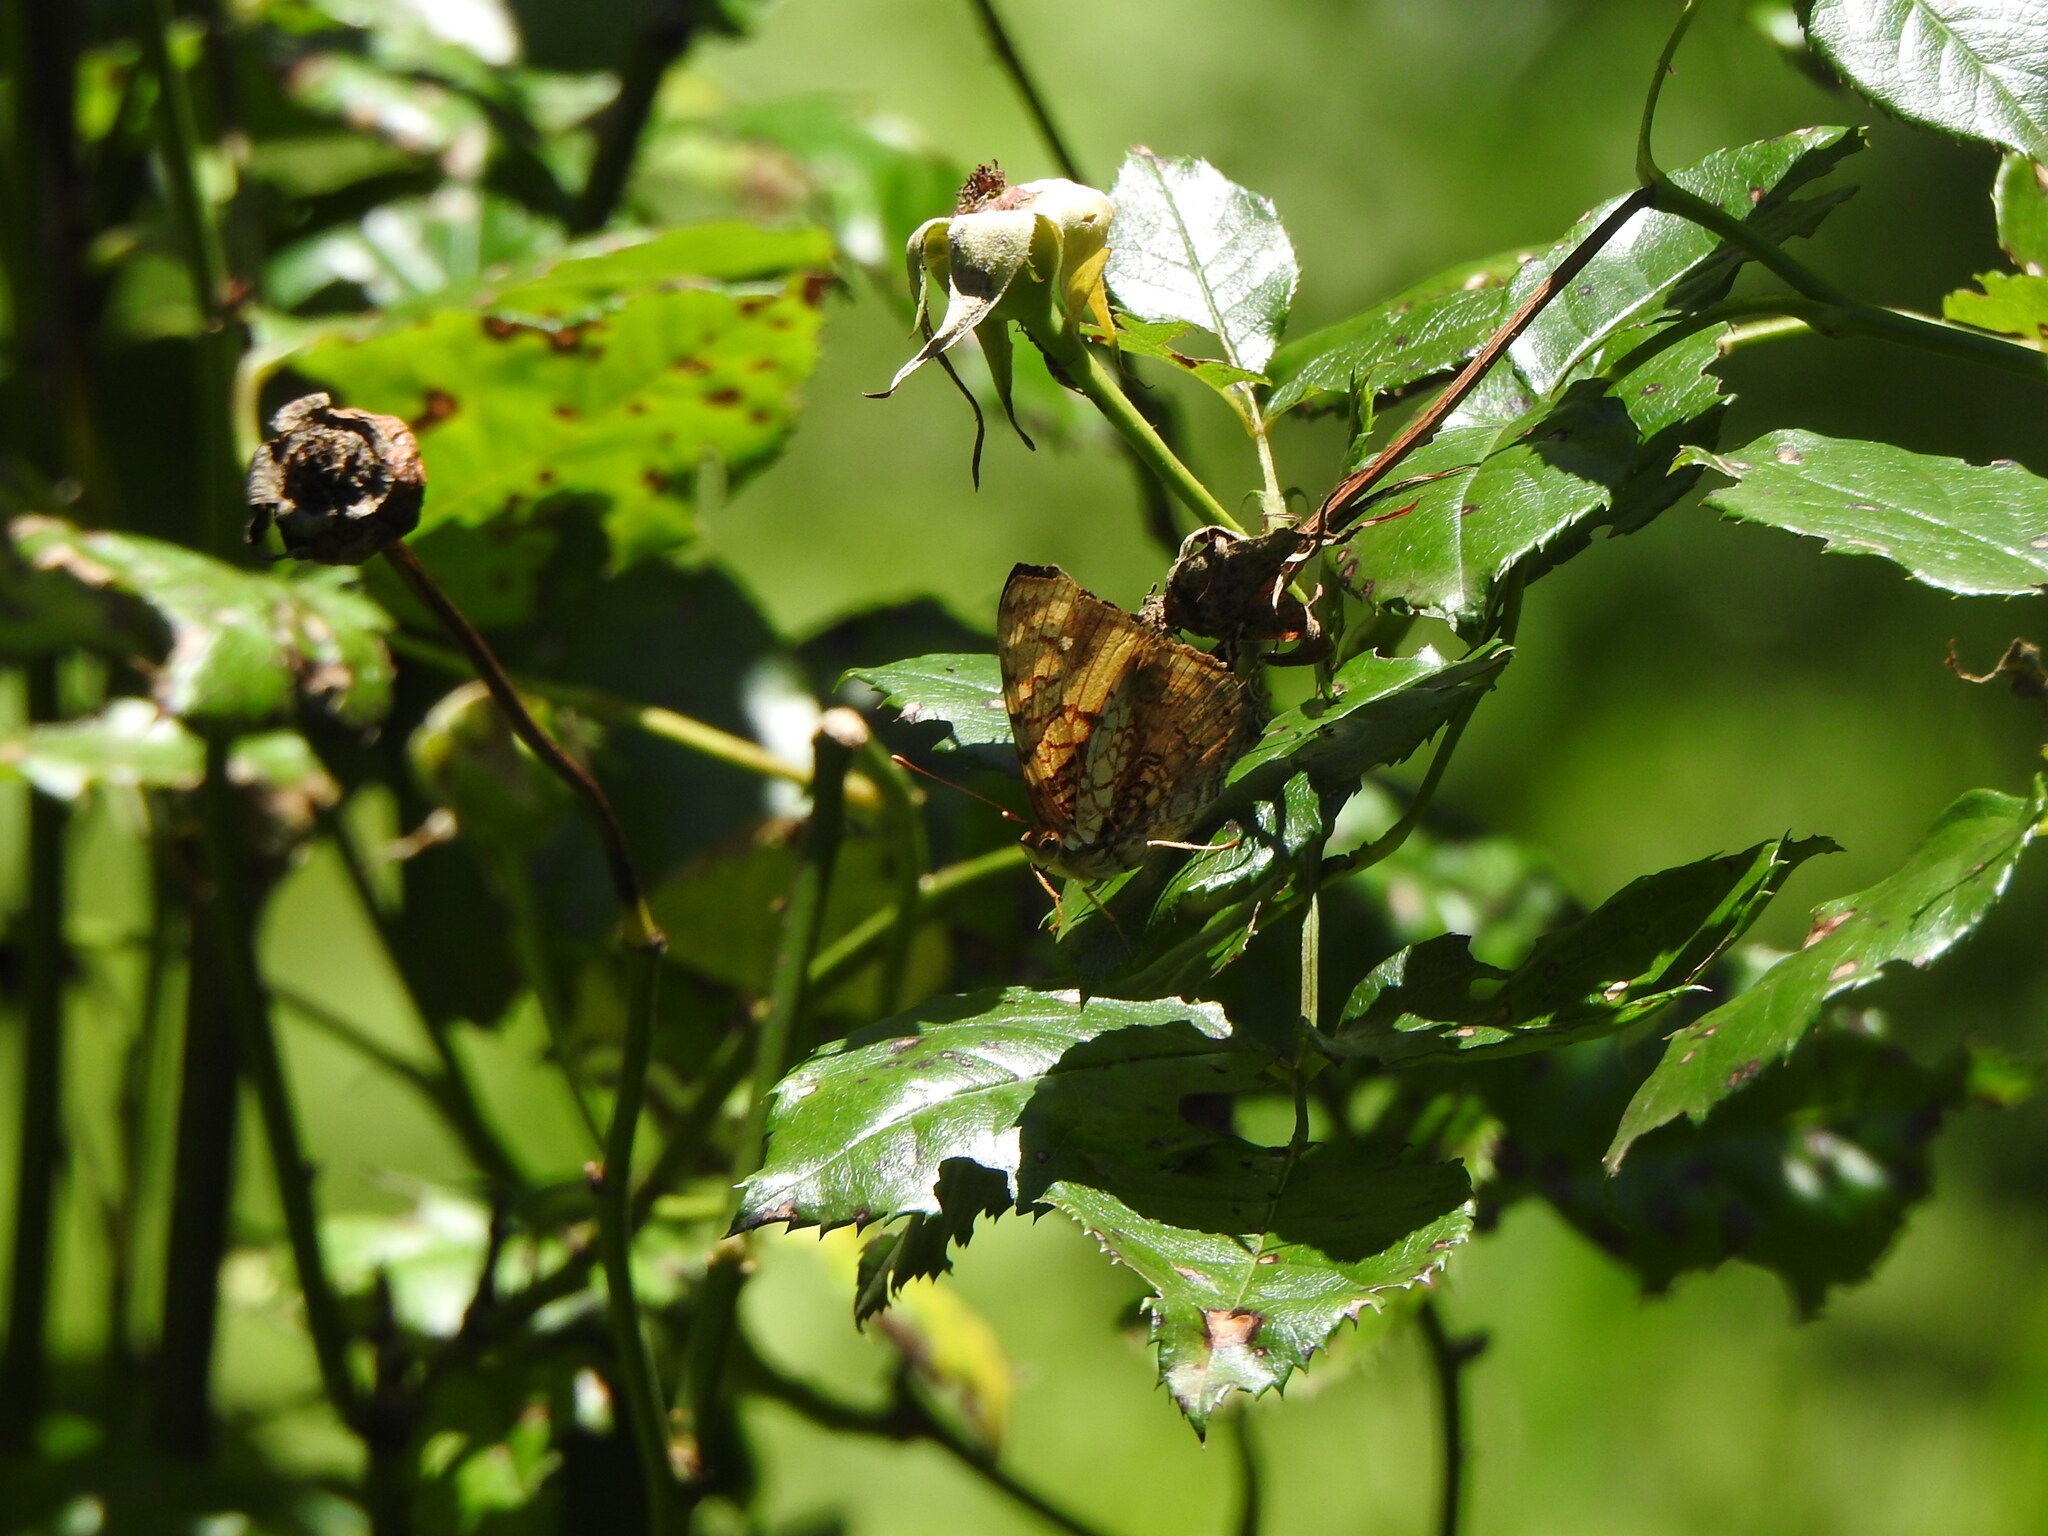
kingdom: Animalia
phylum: Arthropoda
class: Insecta
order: Lepidoptera
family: Nymphalidae
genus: Hypanartia
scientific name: Hypanartia lethe
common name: Orange mapwing
